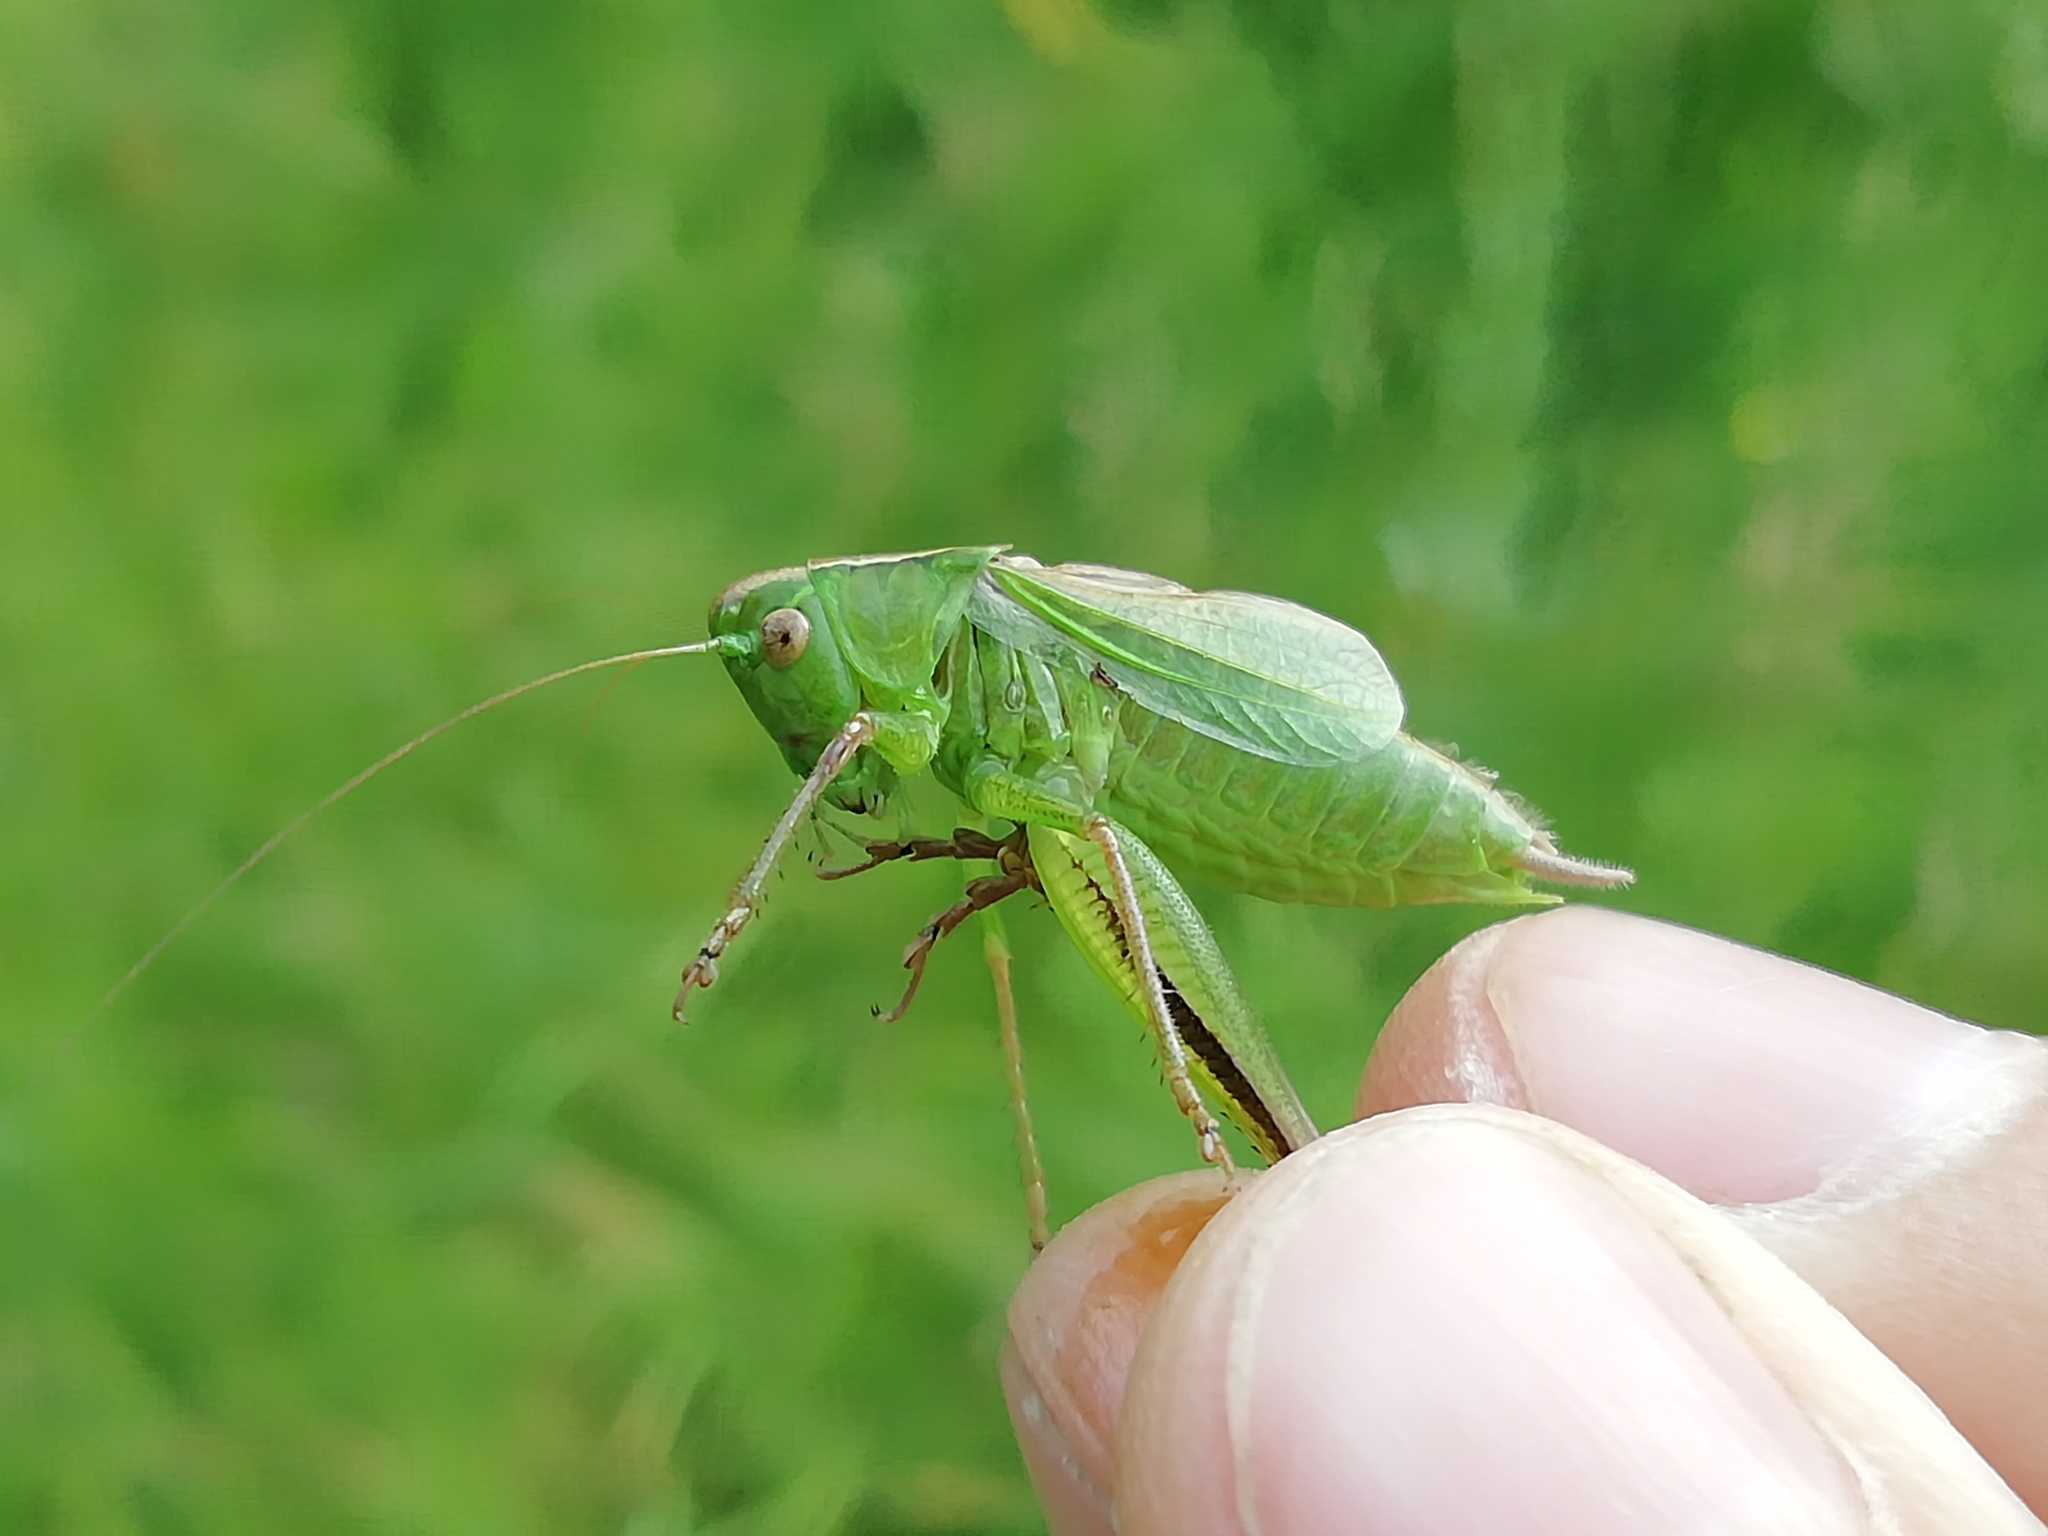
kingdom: Animalia
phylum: Arthropoda
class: Insecta
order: Orthoptera
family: Tettigoniidae
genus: Bicolorana
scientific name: Bicolorana bicolor
